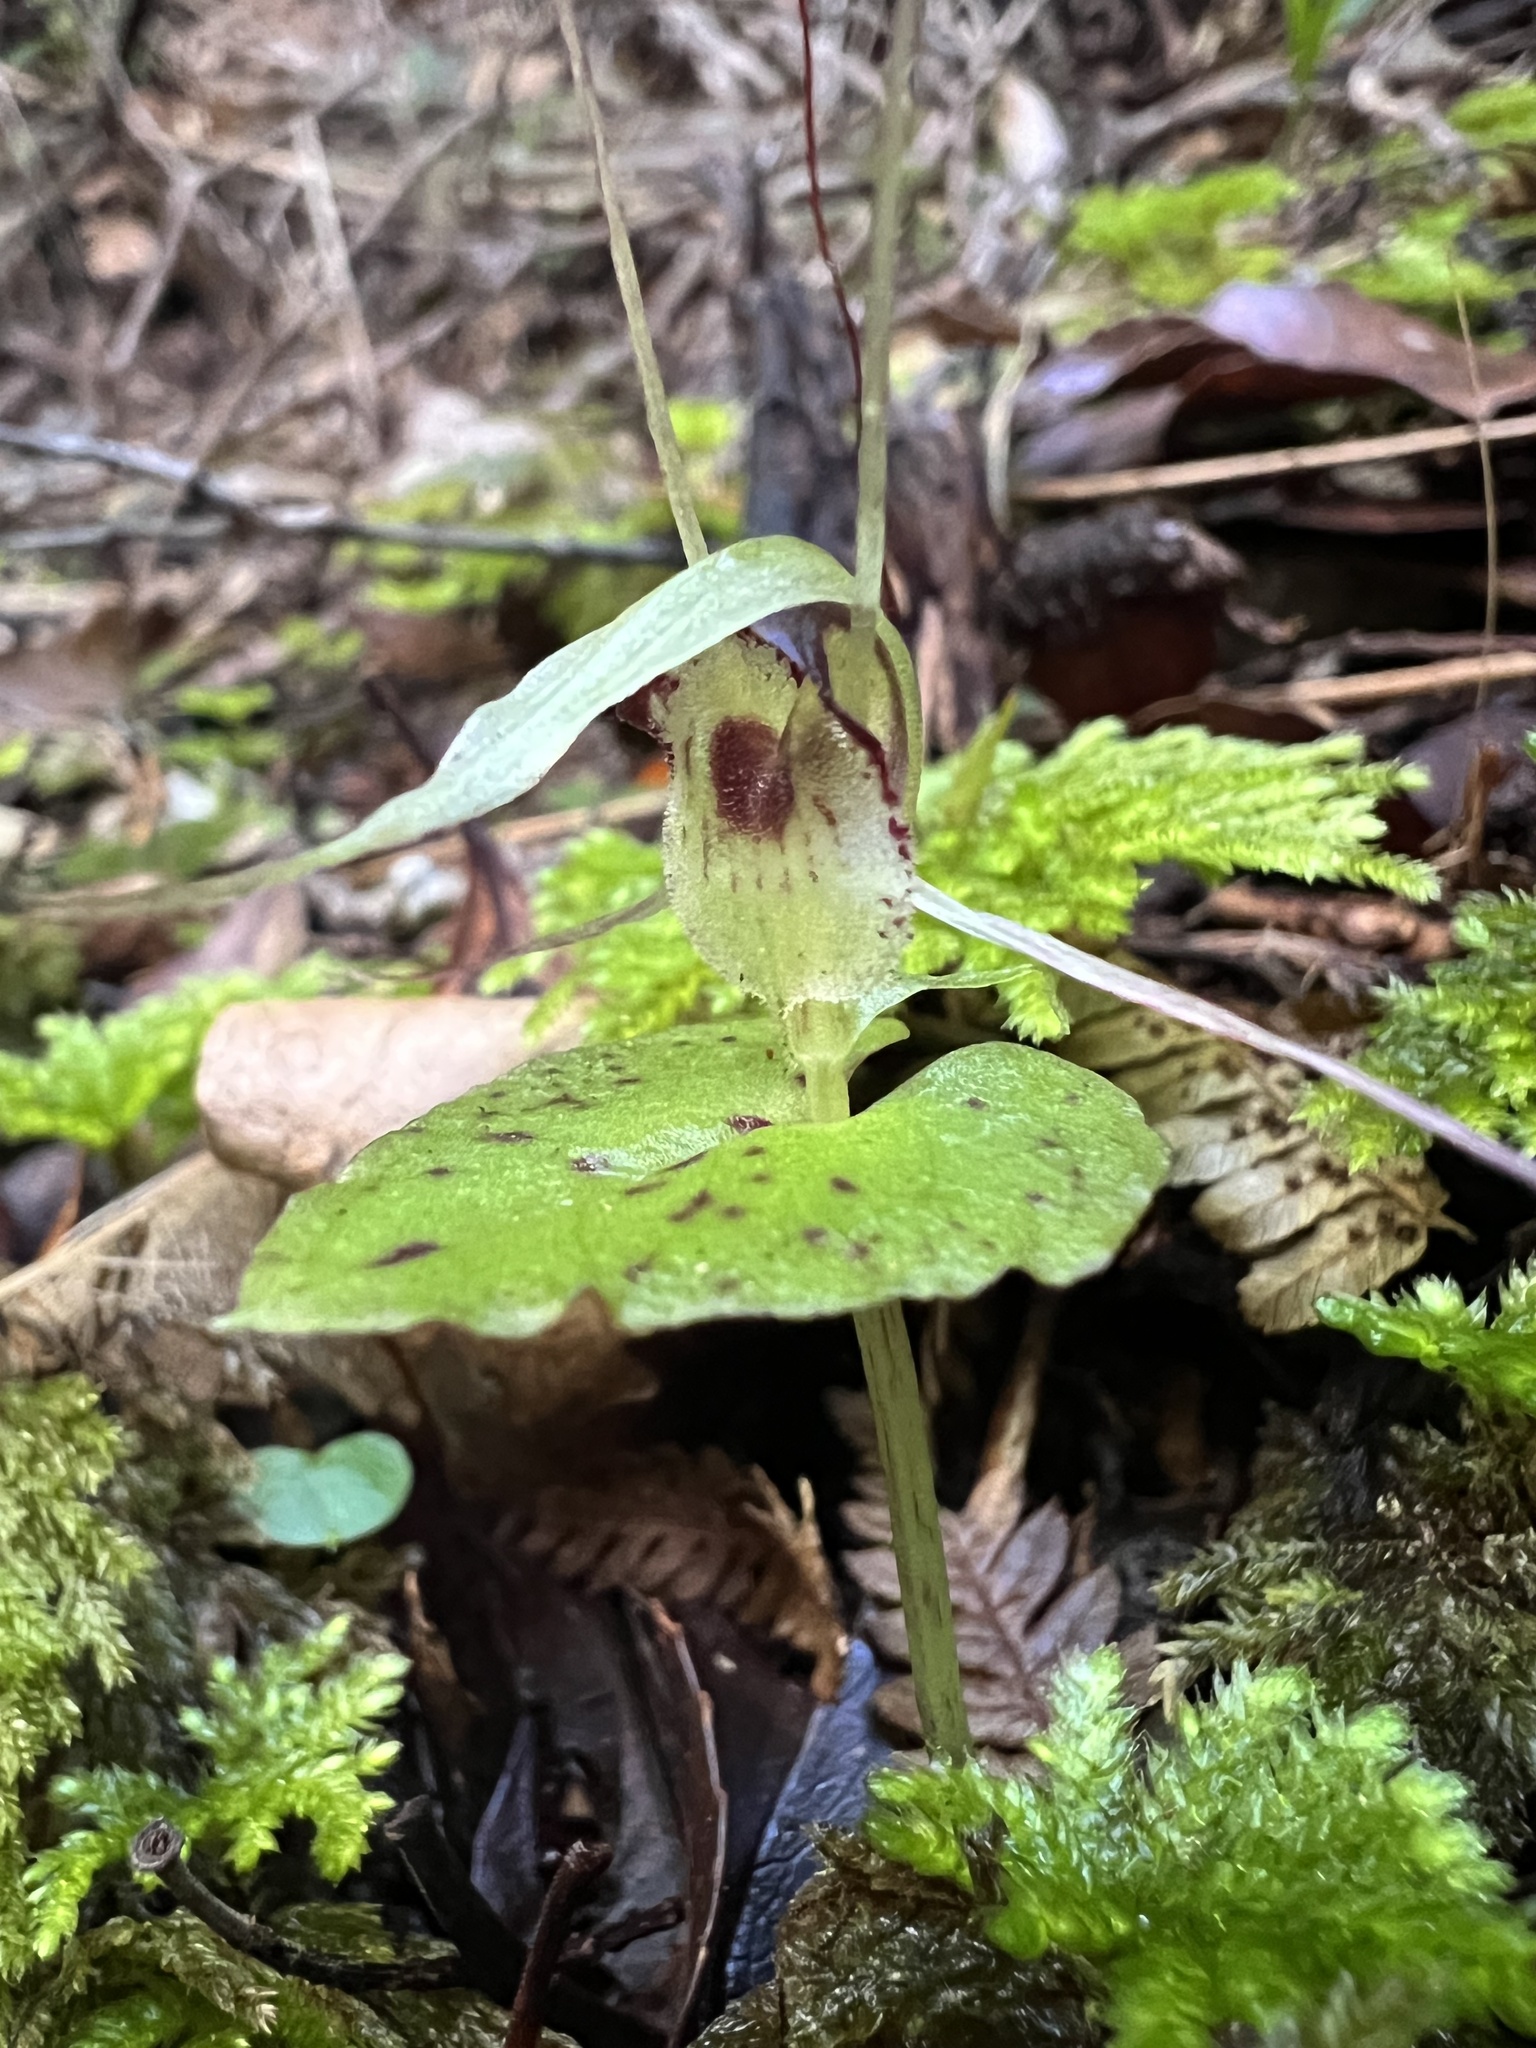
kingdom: Plantae
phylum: Tracheophyta
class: Liliopsida
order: Asparagales
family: Orchidaceae
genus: Corybas
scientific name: Corybas acuminatus
